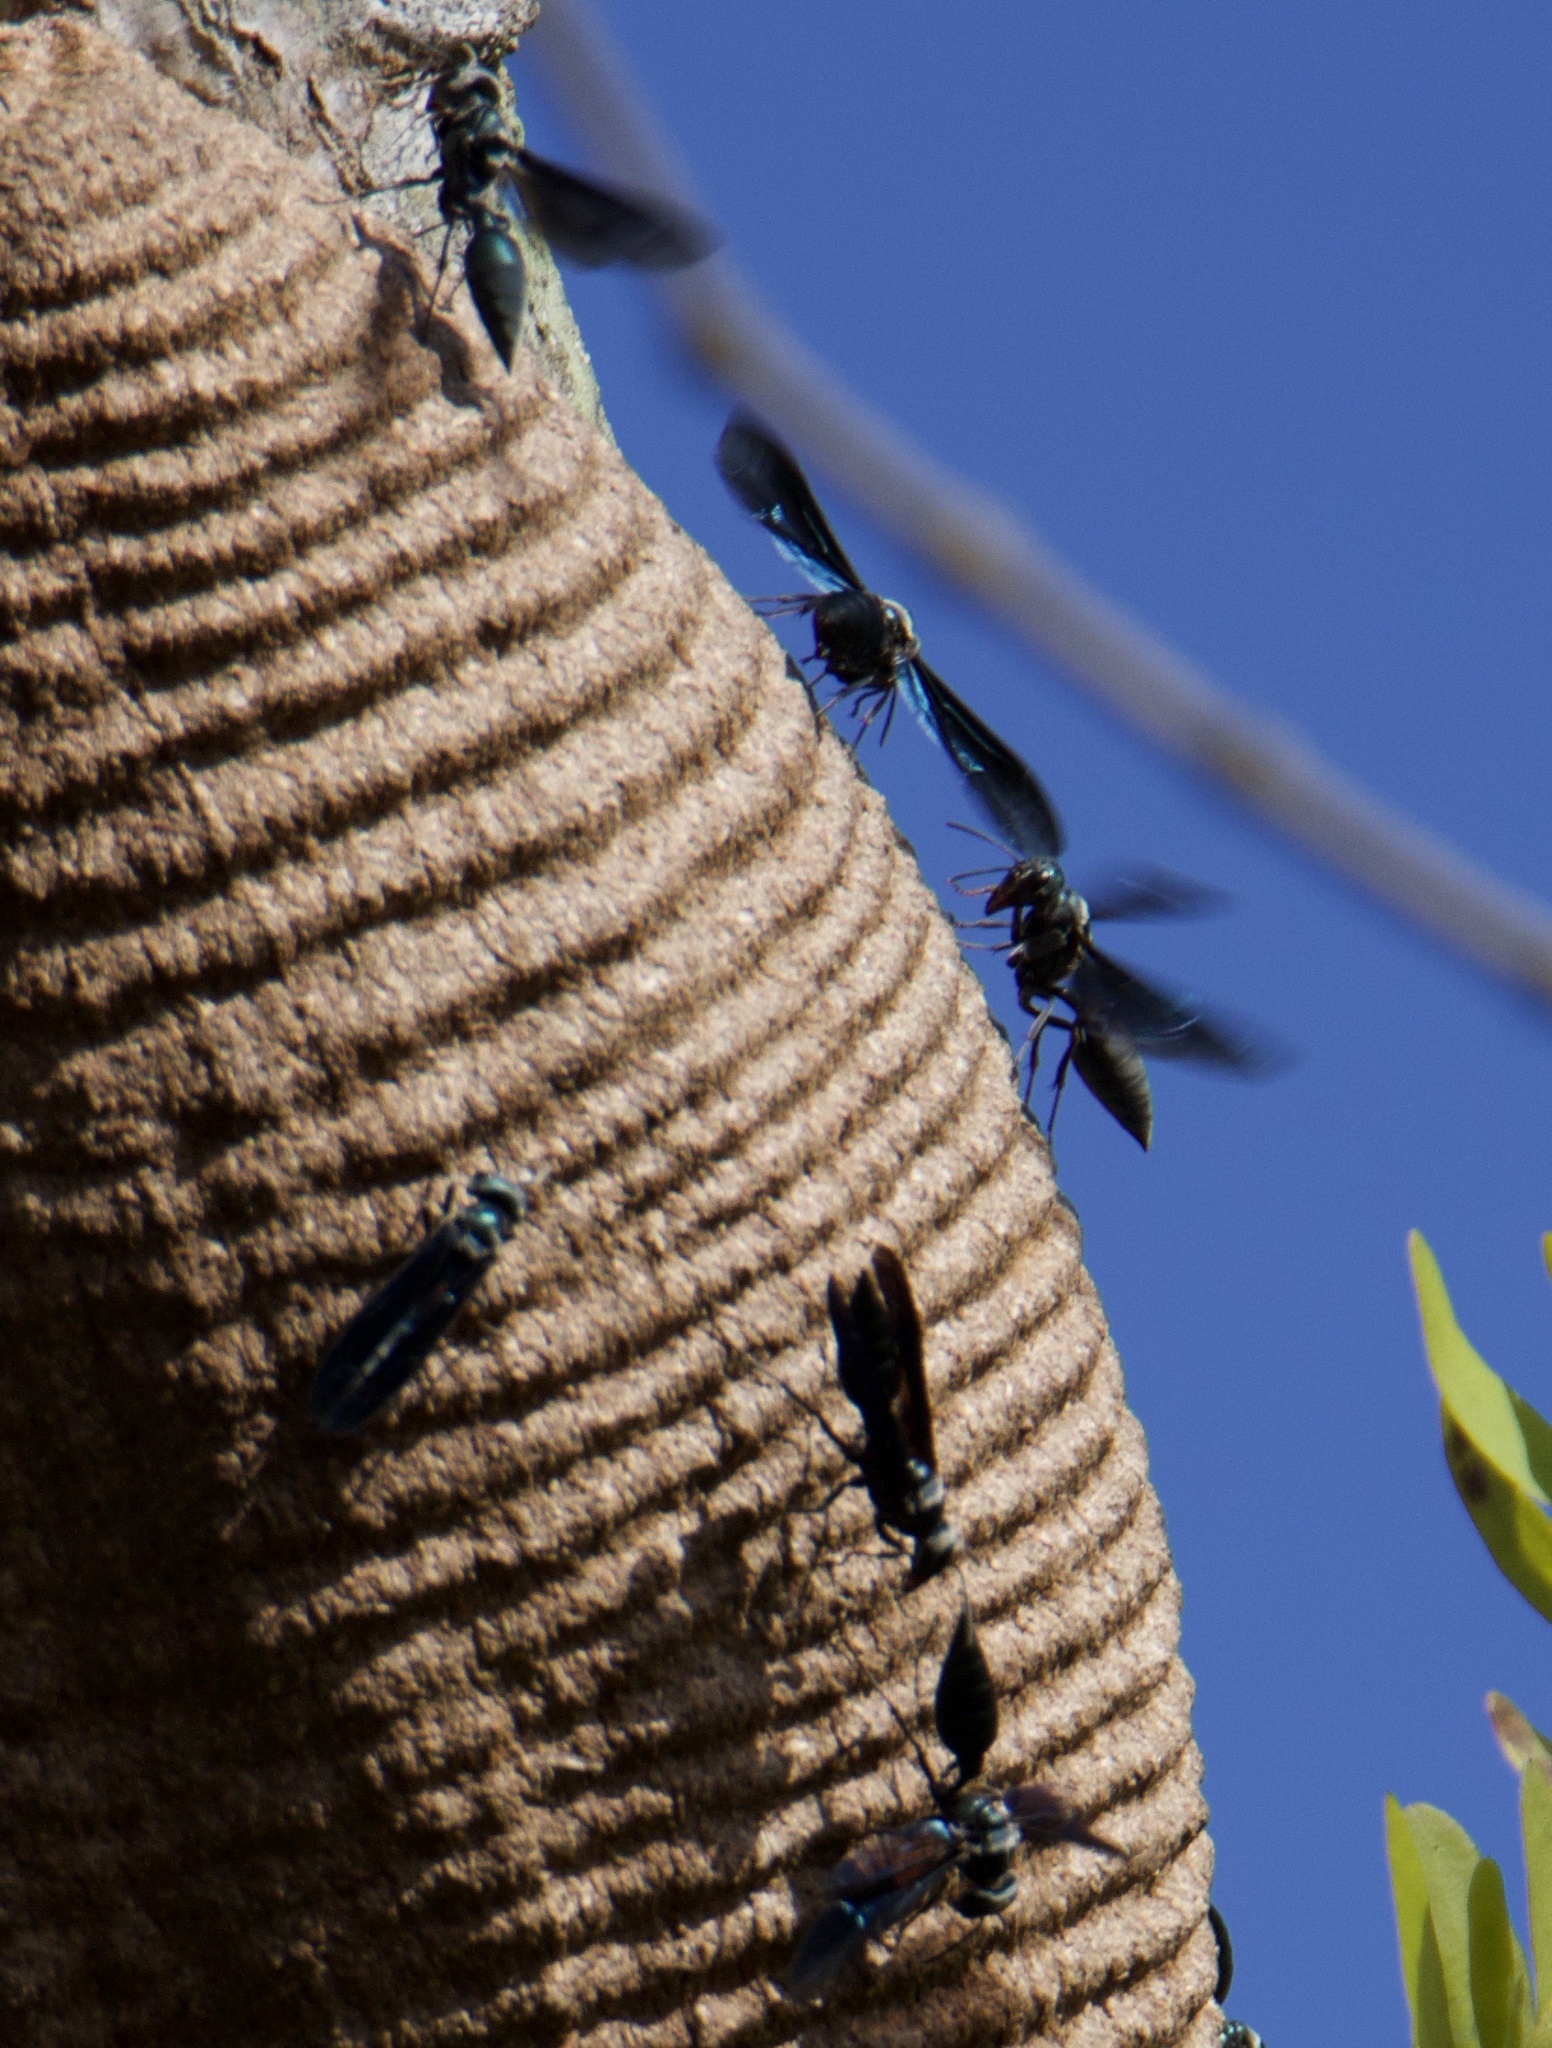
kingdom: Animalia
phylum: Arthropoda
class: Insecta
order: Hymenoptera
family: Vespidae
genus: Synoeca
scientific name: Synoeca septentrionalis
